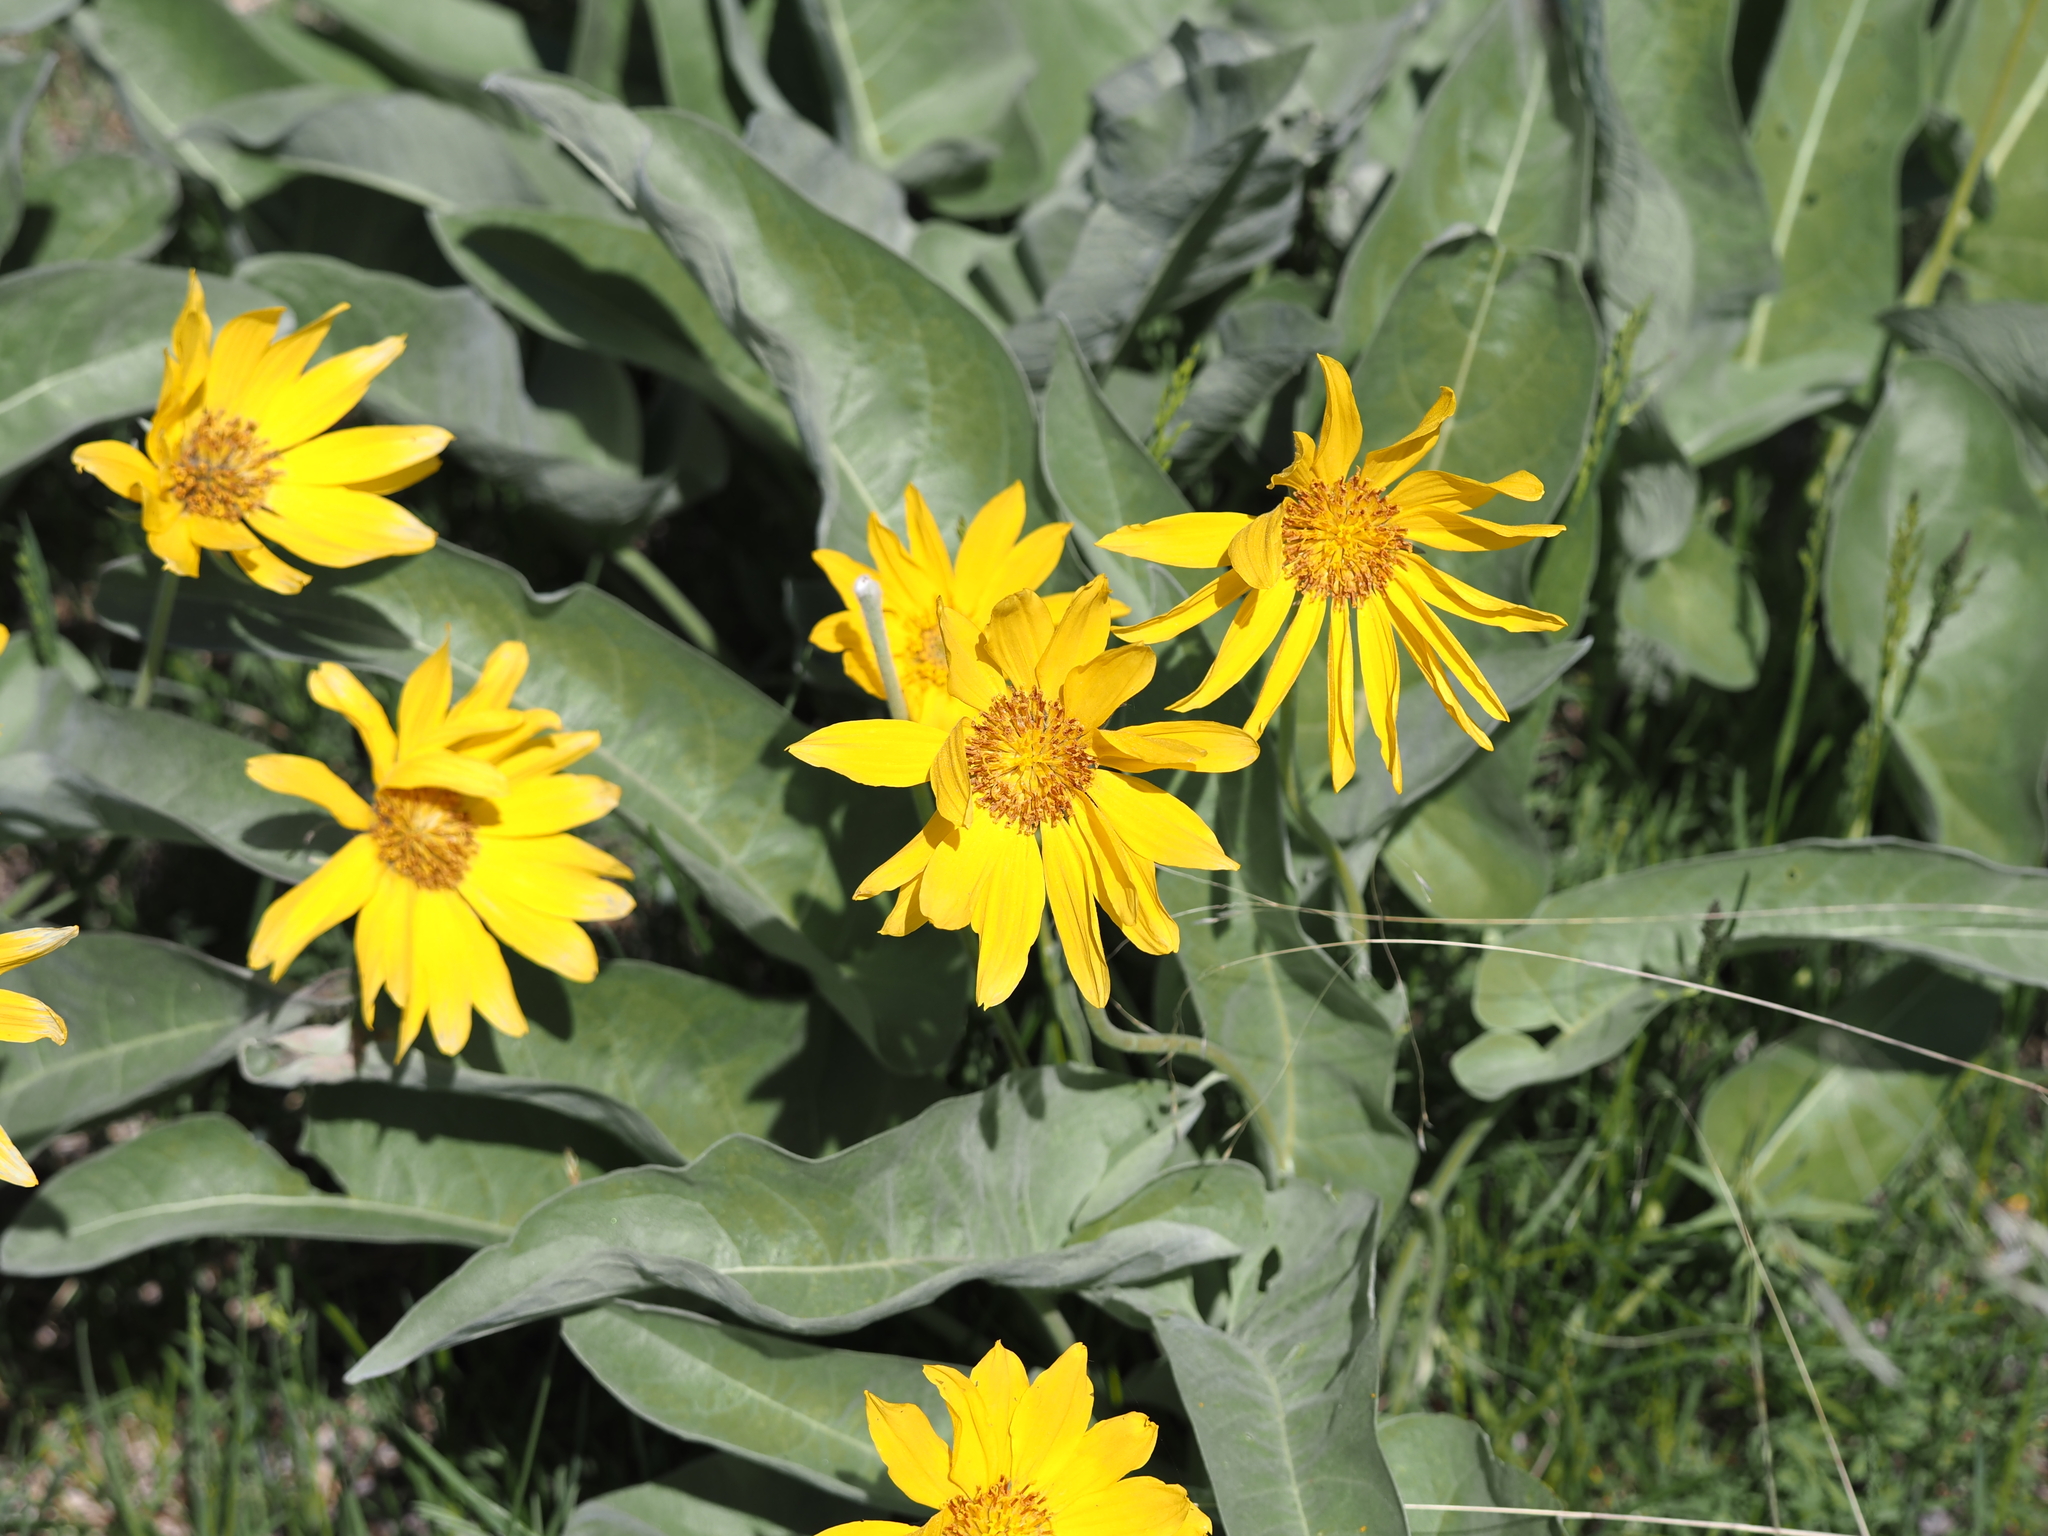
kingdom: Plantae
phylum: Tracheophyta
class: Magnoliopsida
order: Asterales
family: Asteraceae
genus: Wyethia
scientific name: Wyethia sagittata
